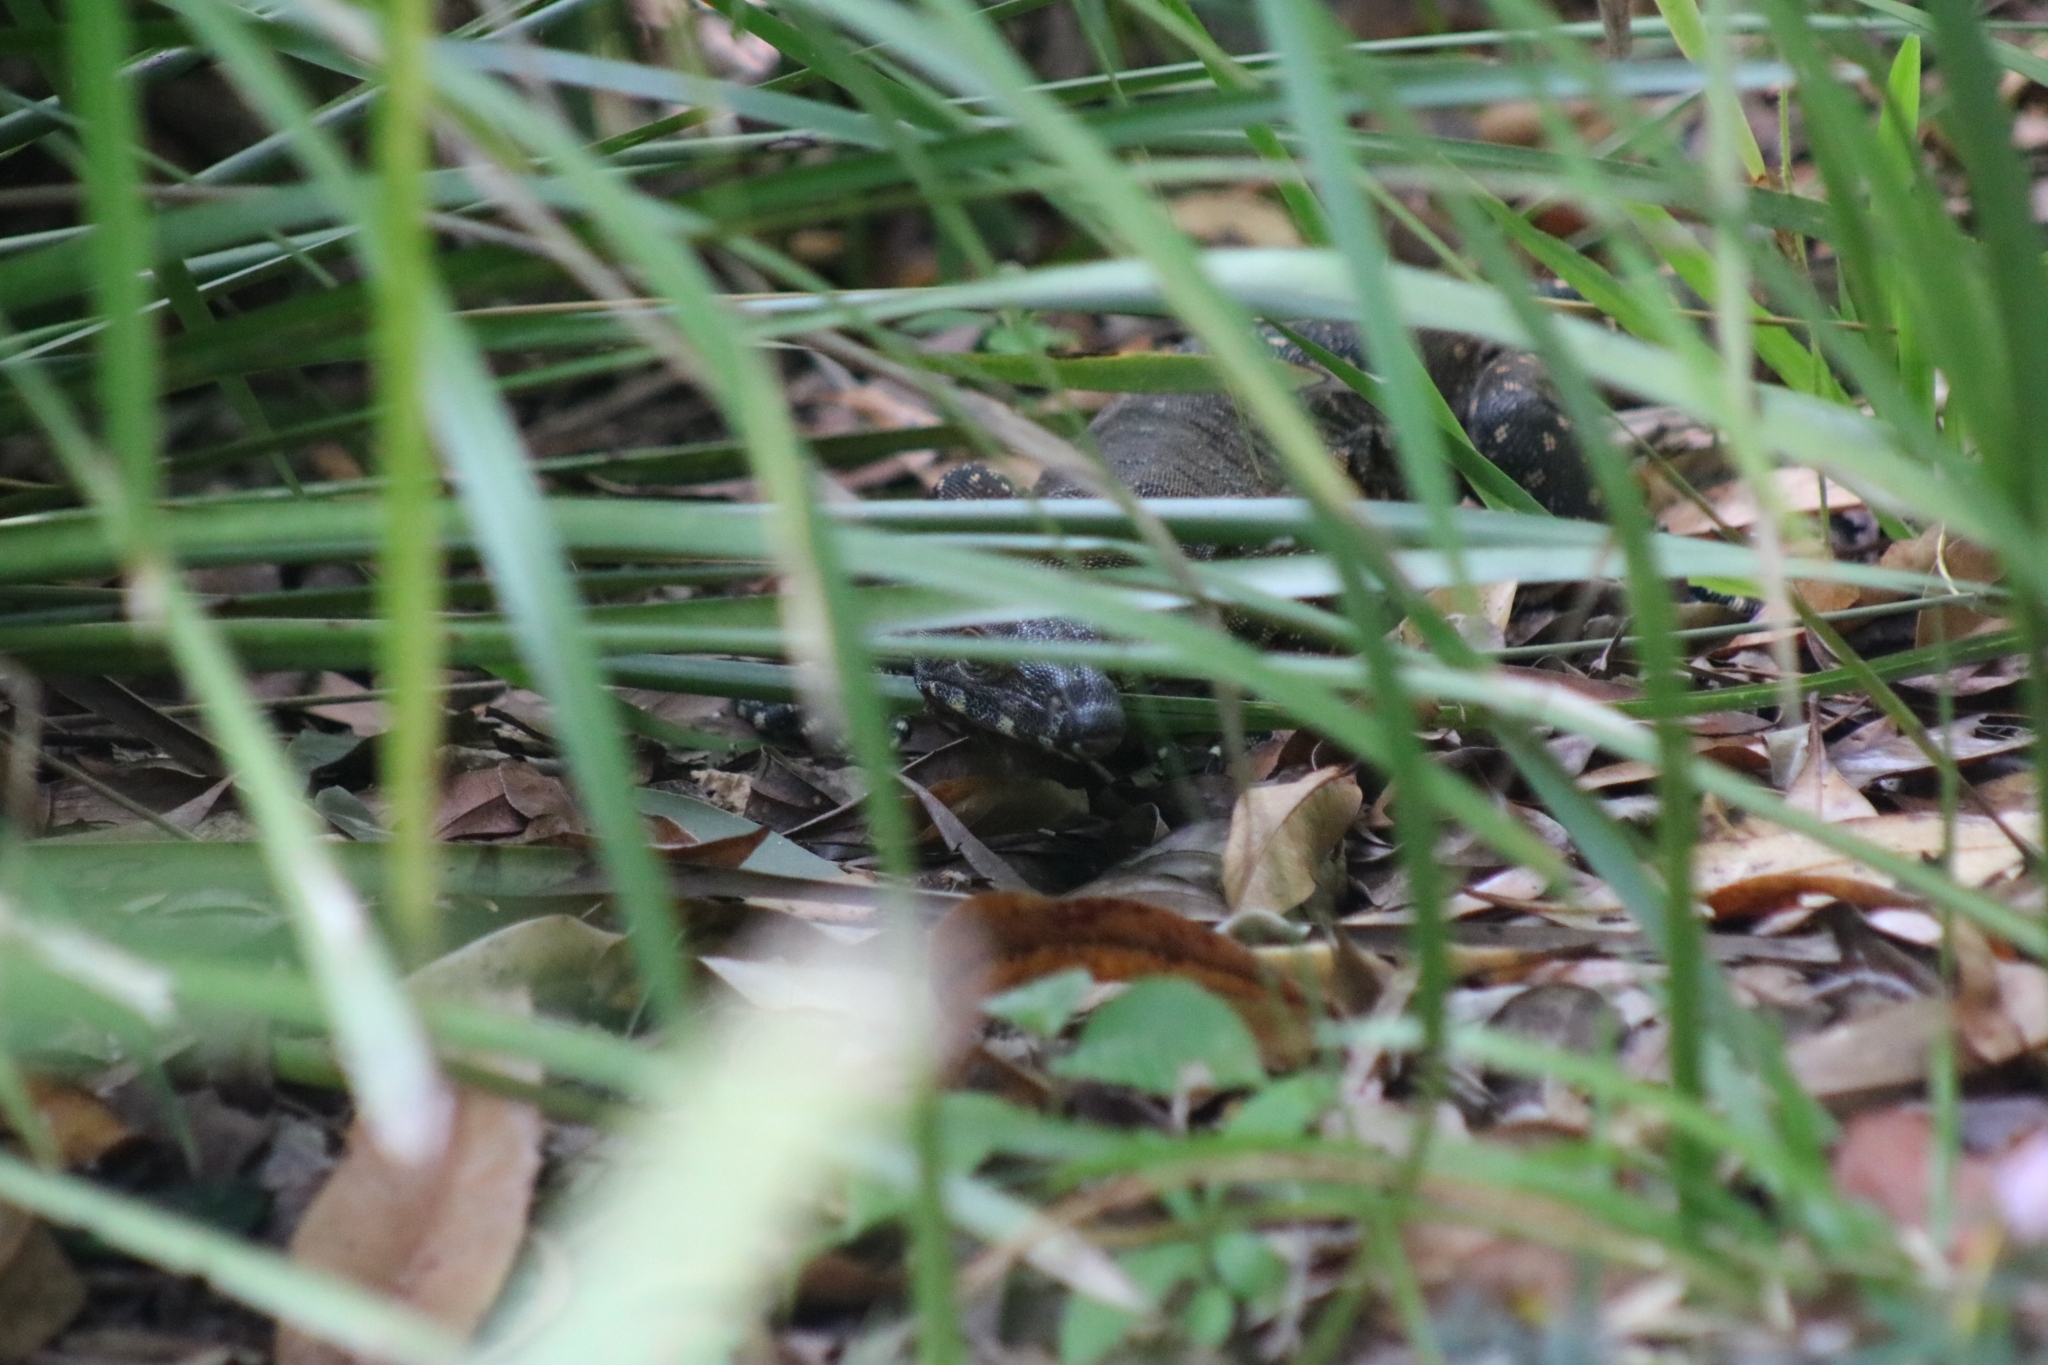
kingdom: Animalia
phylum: Chordata
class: Squamata
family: Varanidae
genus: Varanus
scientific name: Varanus varius
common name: Lace monitor
